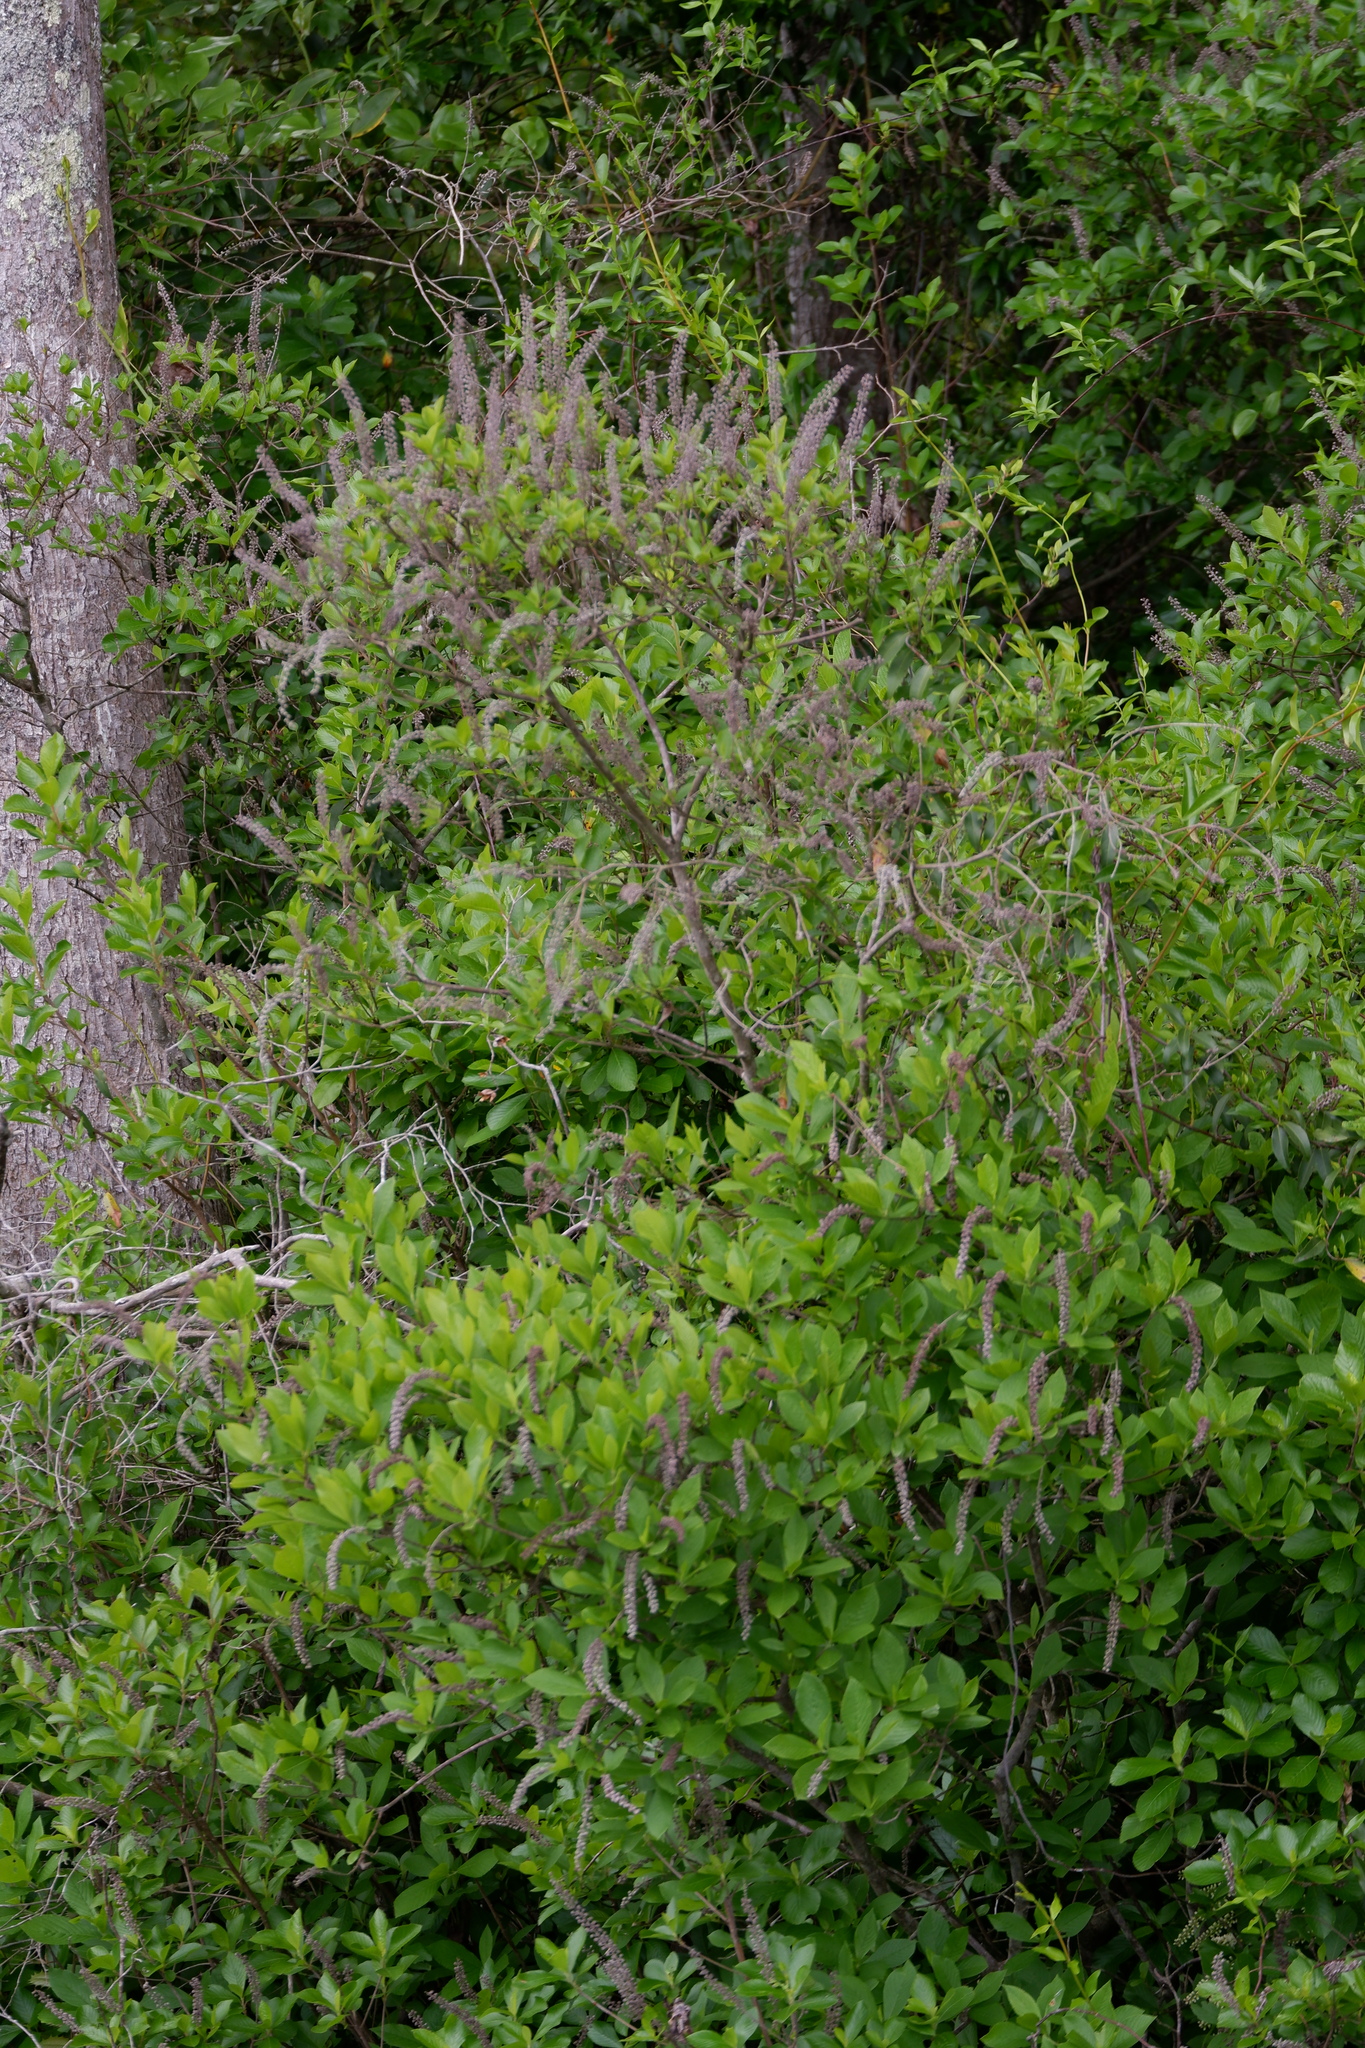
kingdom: Plantae
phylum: Tracheophyta
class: Magnoliopsida
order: Ericales
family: Clethraceae
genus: Clethra
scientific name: Clethra alnifolia
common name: Sweet pepperbush
